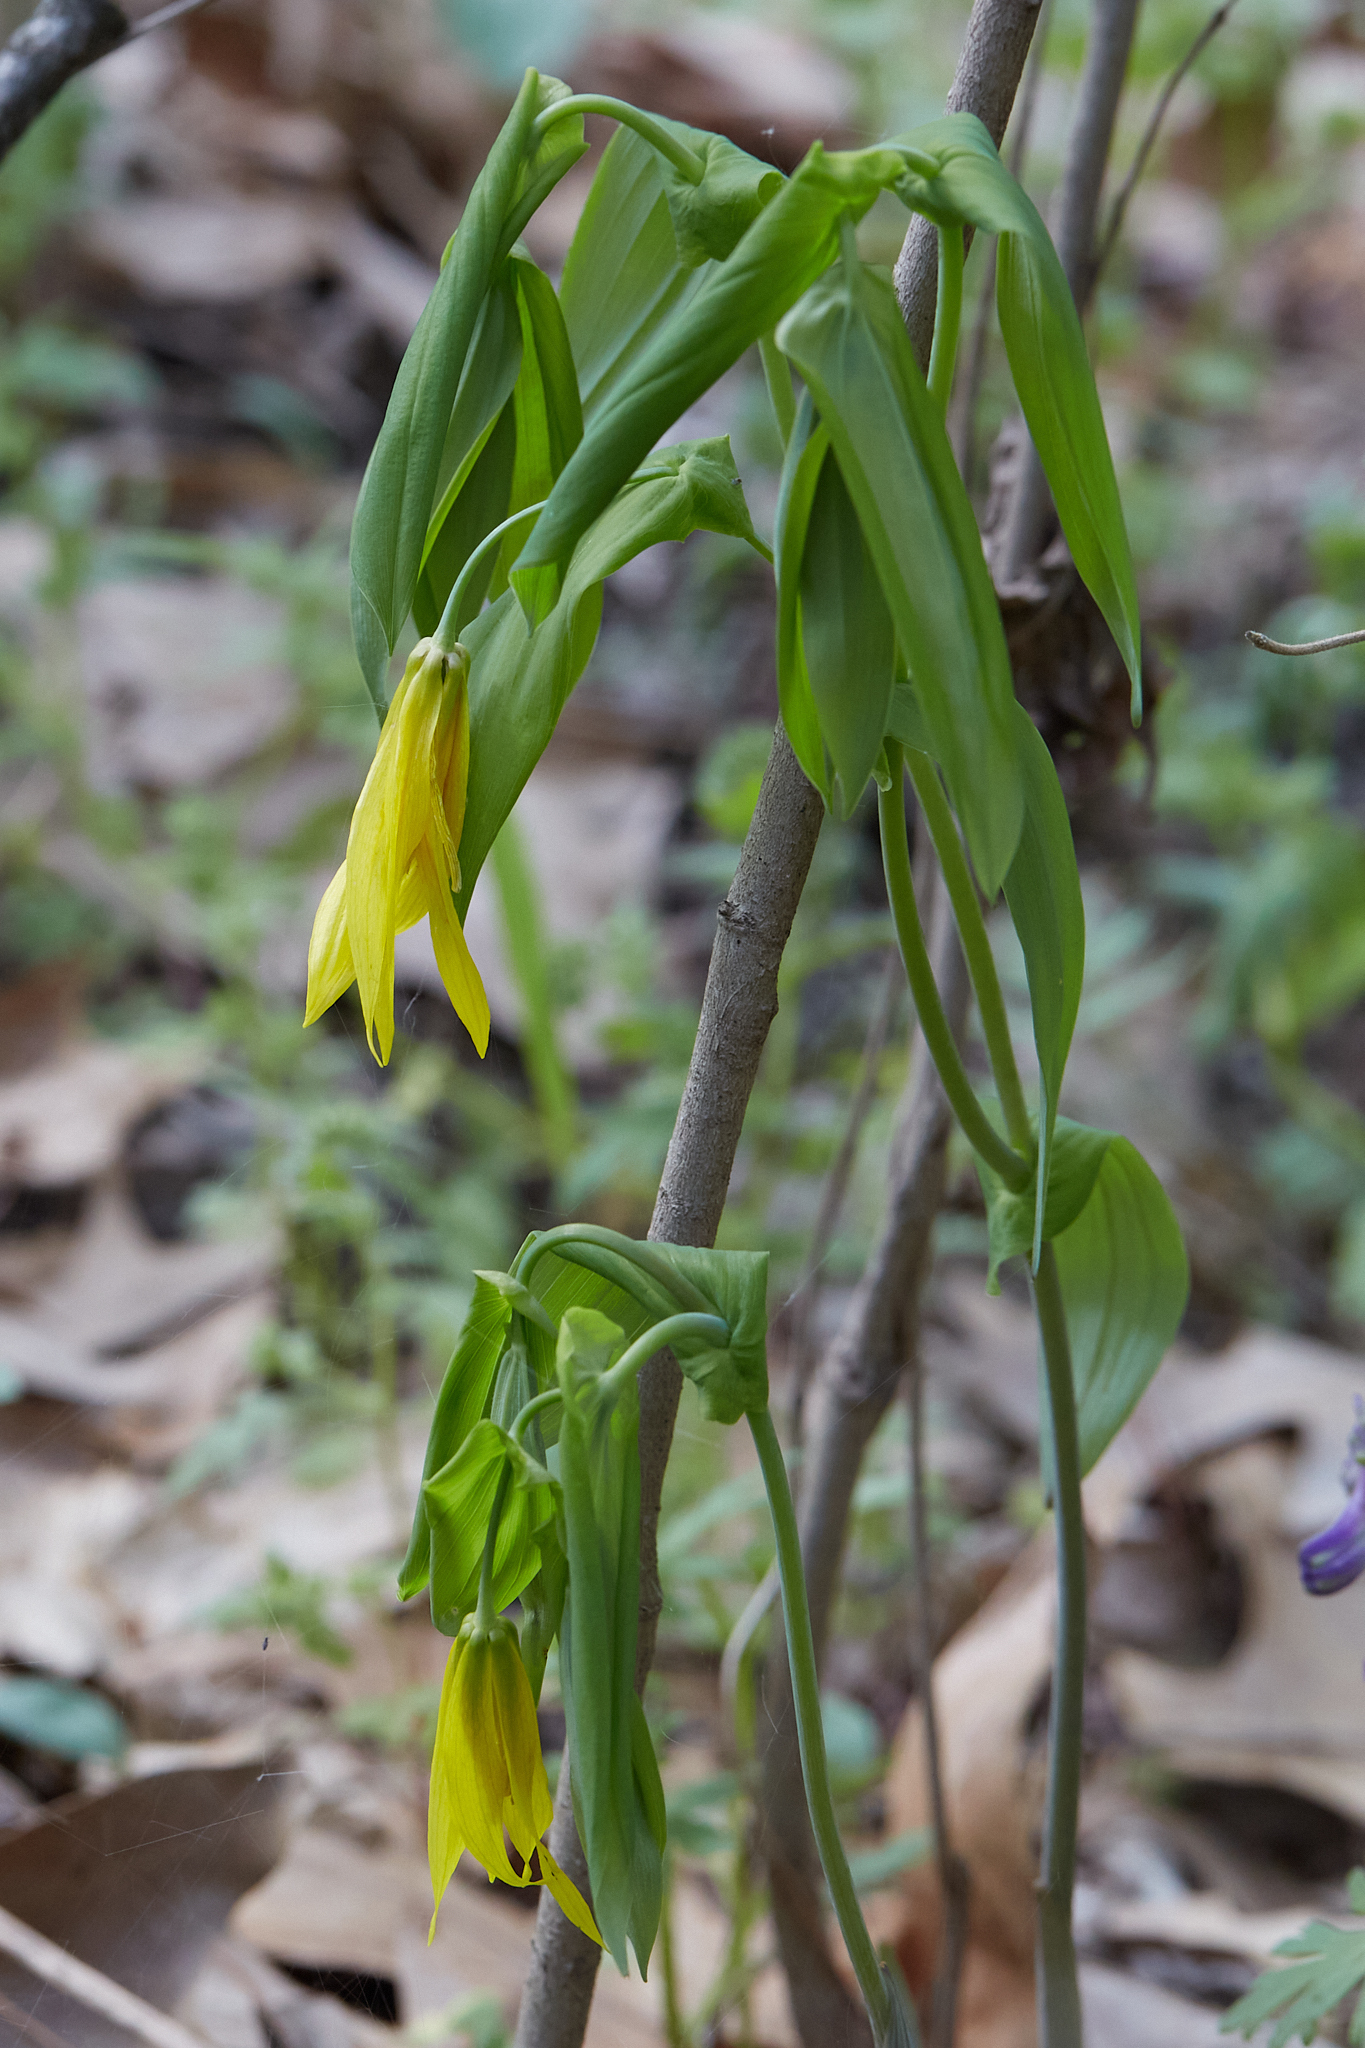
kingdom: Plantae
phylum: Tracheophyta
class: Liliopsida
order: Liliales
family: Colchicaceae
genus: Uvularia
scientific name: Uvularia grandiflora
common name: Bellwort
